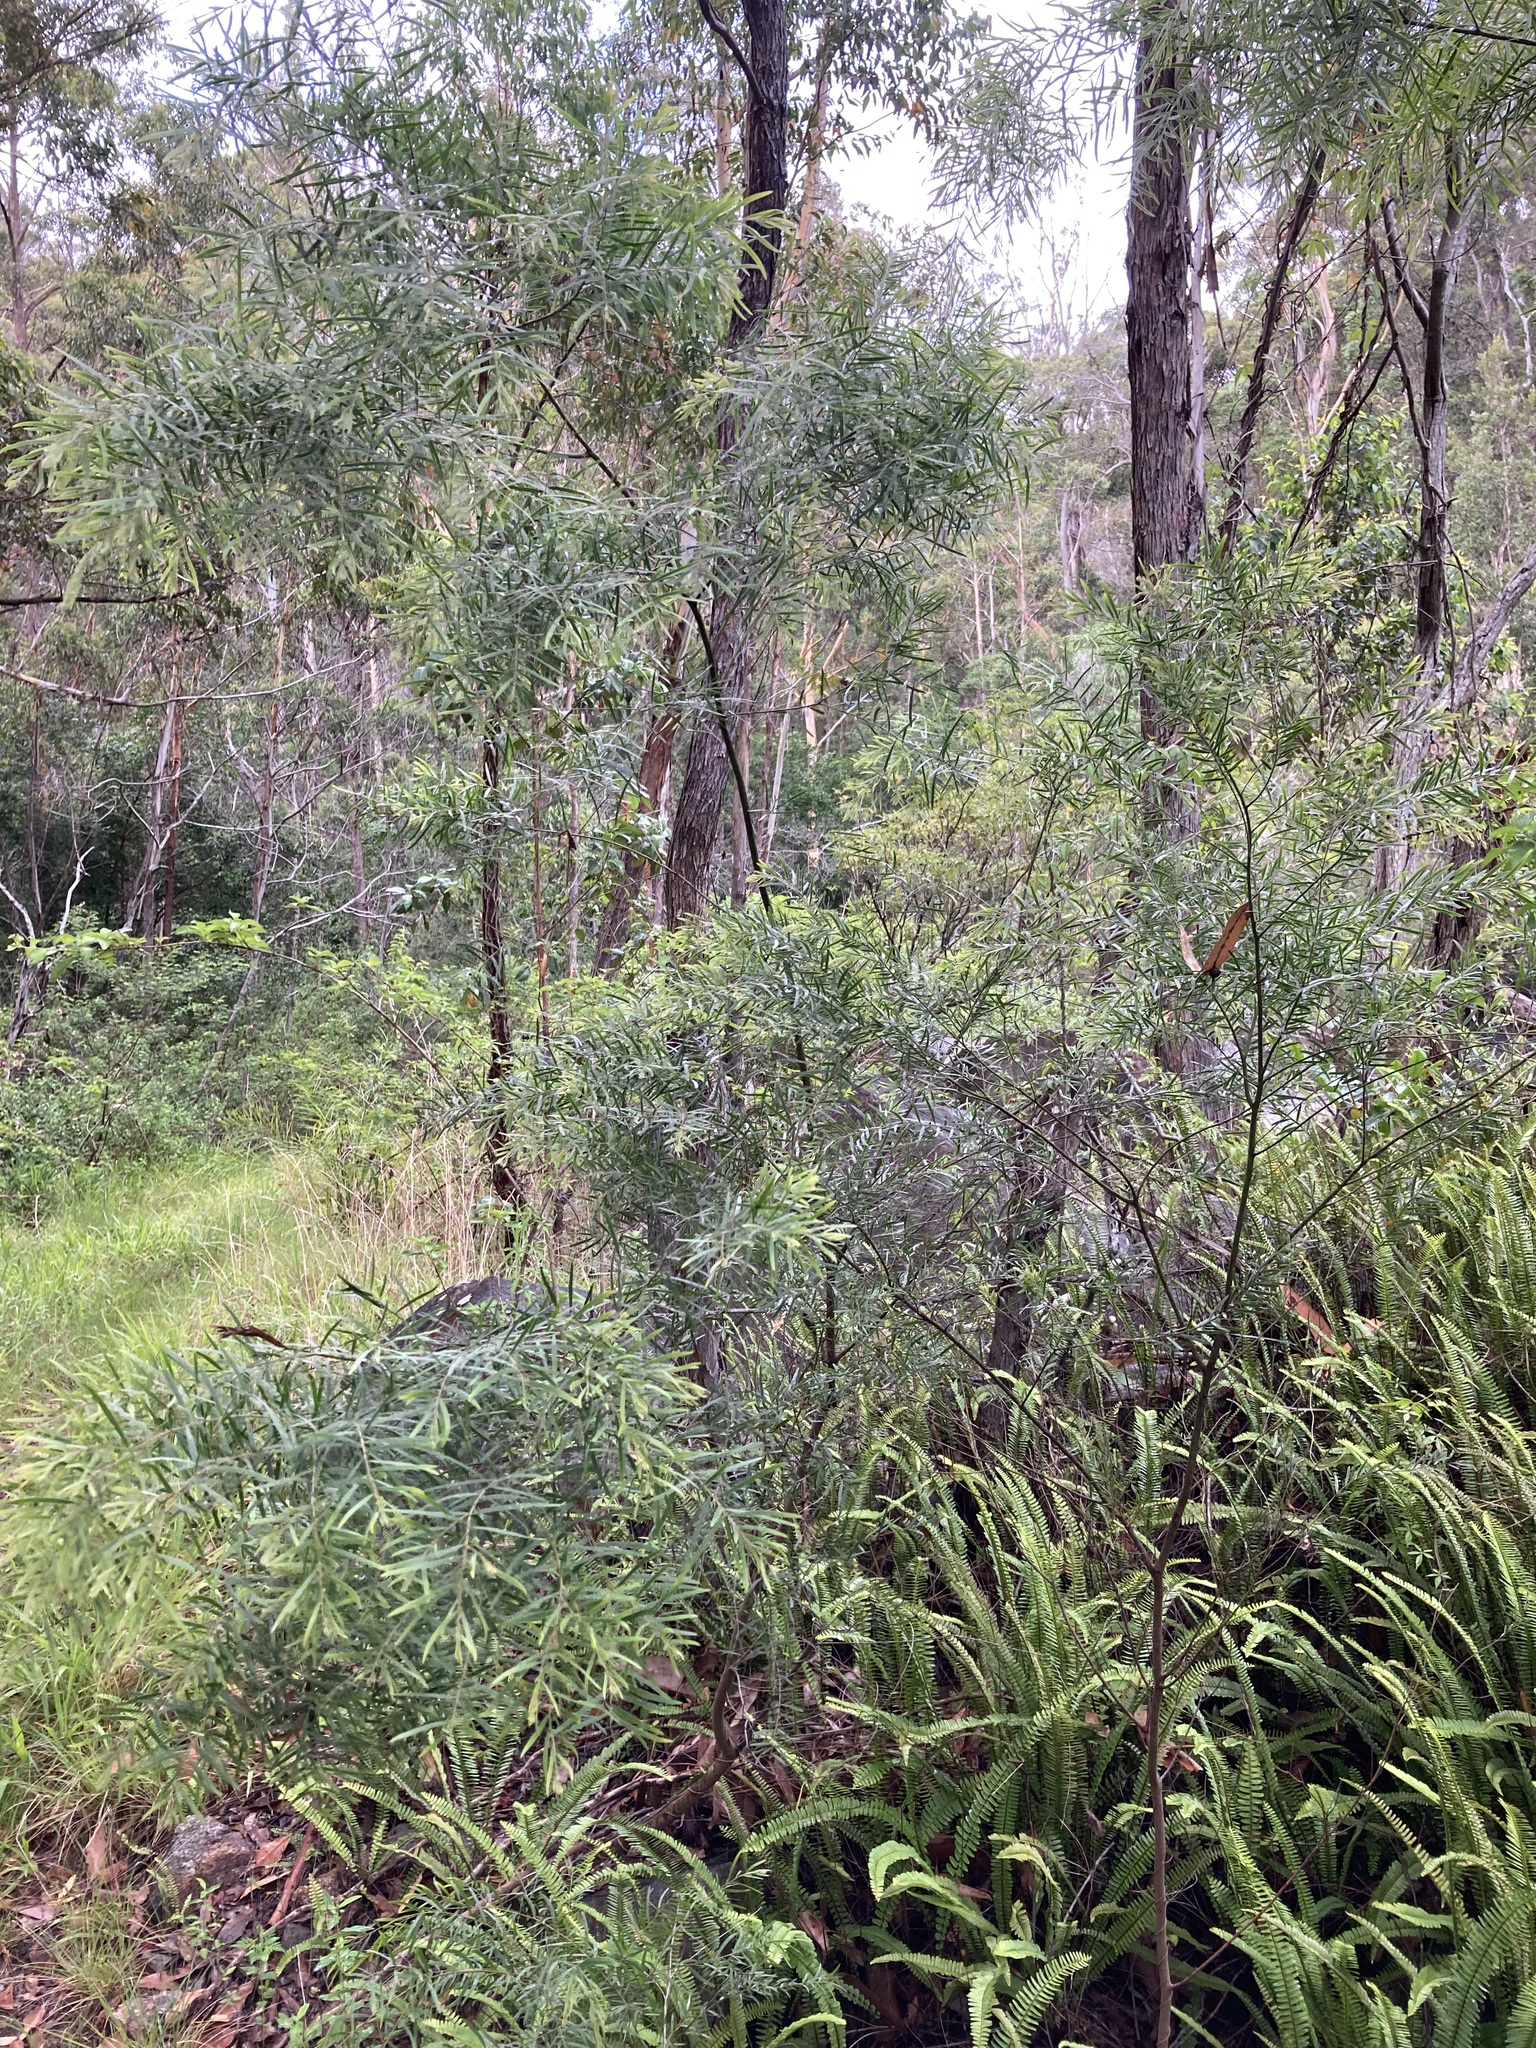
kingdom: Plantae
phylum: Tracheophyta
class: Magnoliopsida
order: Fabales
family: Fabaceae
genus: Acacia
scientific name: Acacia fimbriata
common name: Brisbane golden wattle
